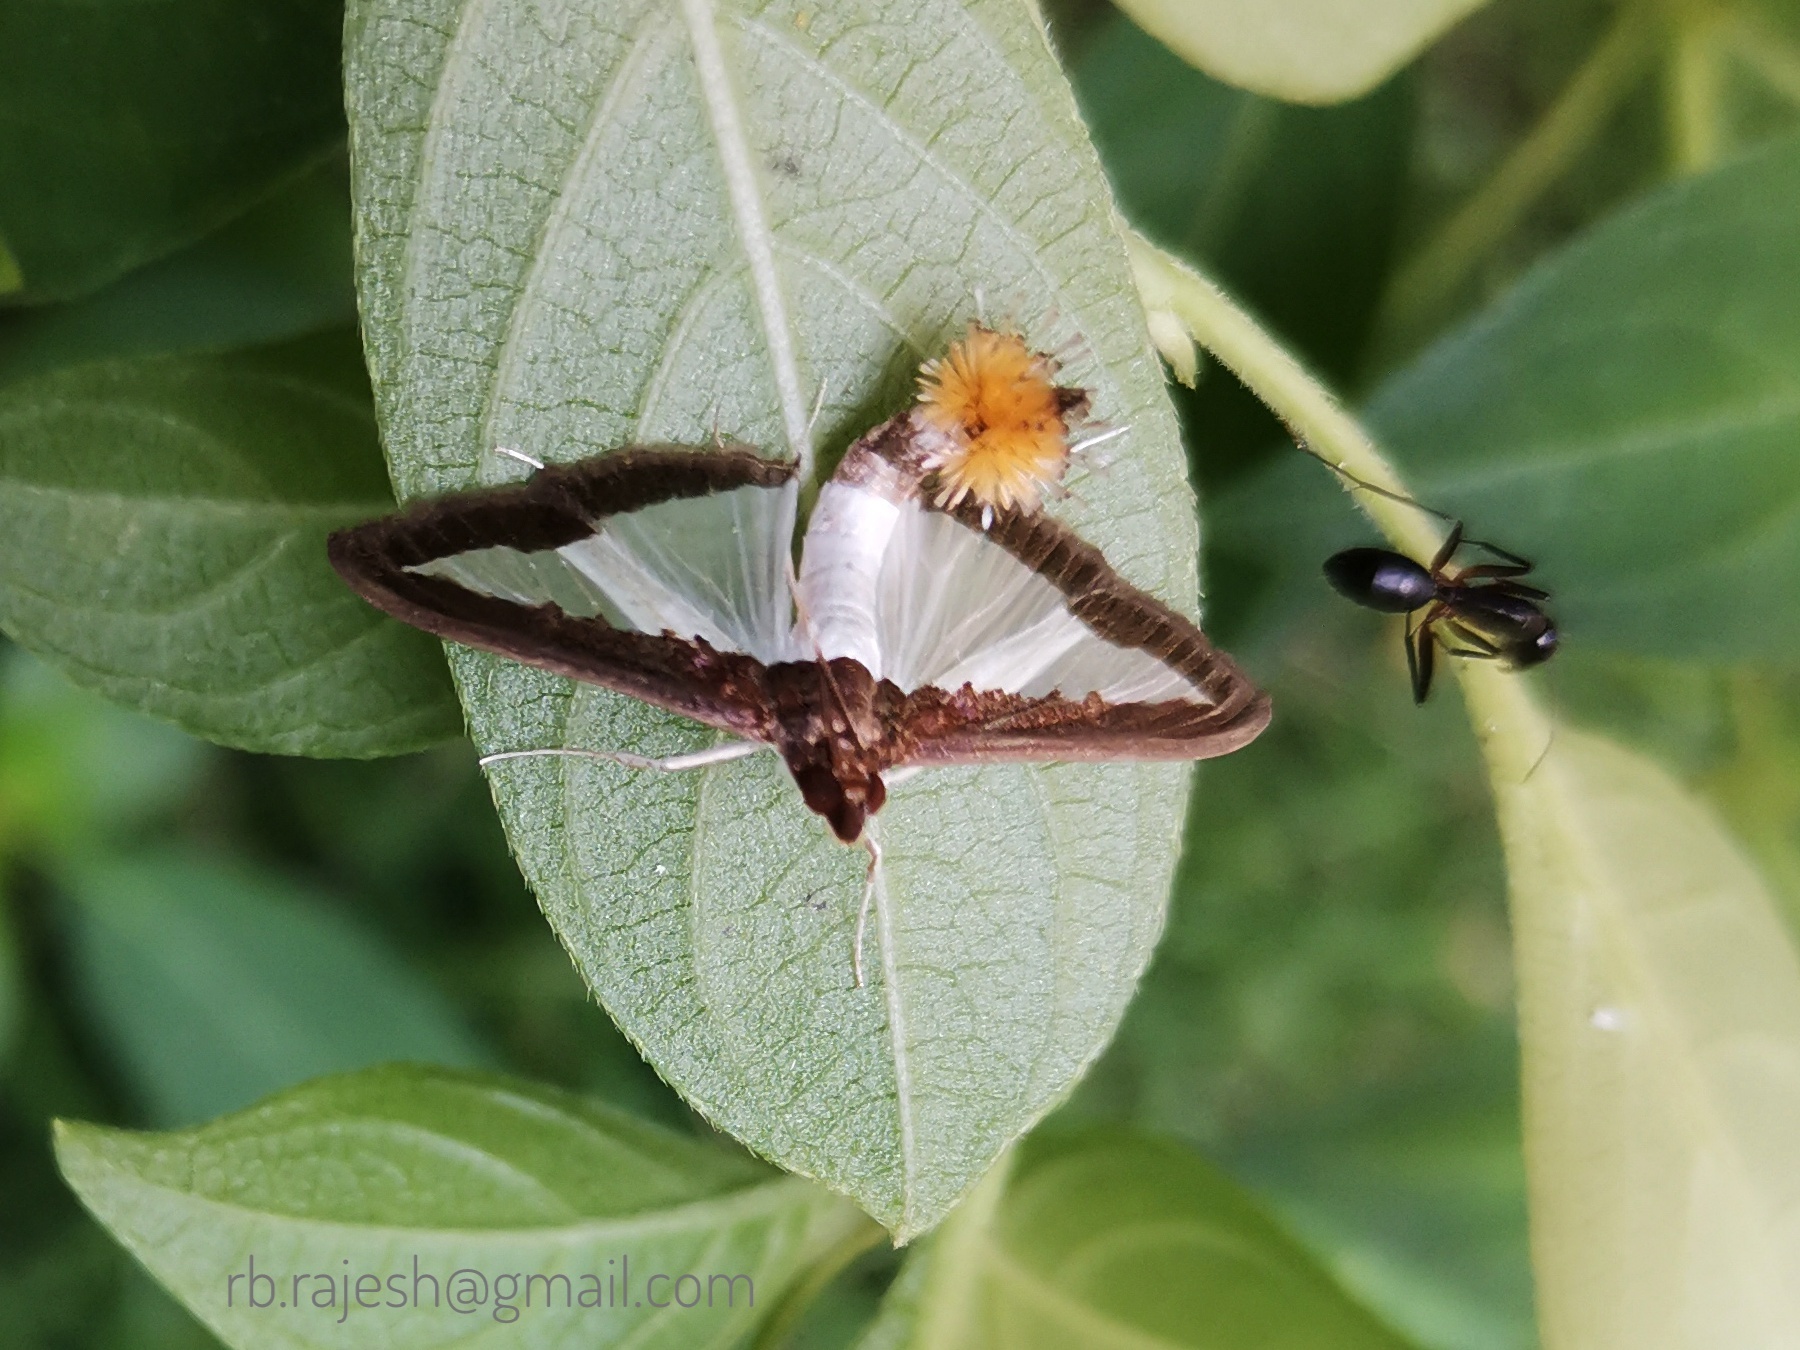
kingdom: Animalia
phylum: Arthropoda
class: Insecta
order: Lepidoptera
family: Crambidae
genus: Diaphania
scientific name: Diaphania indica
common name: Cucumber moth
